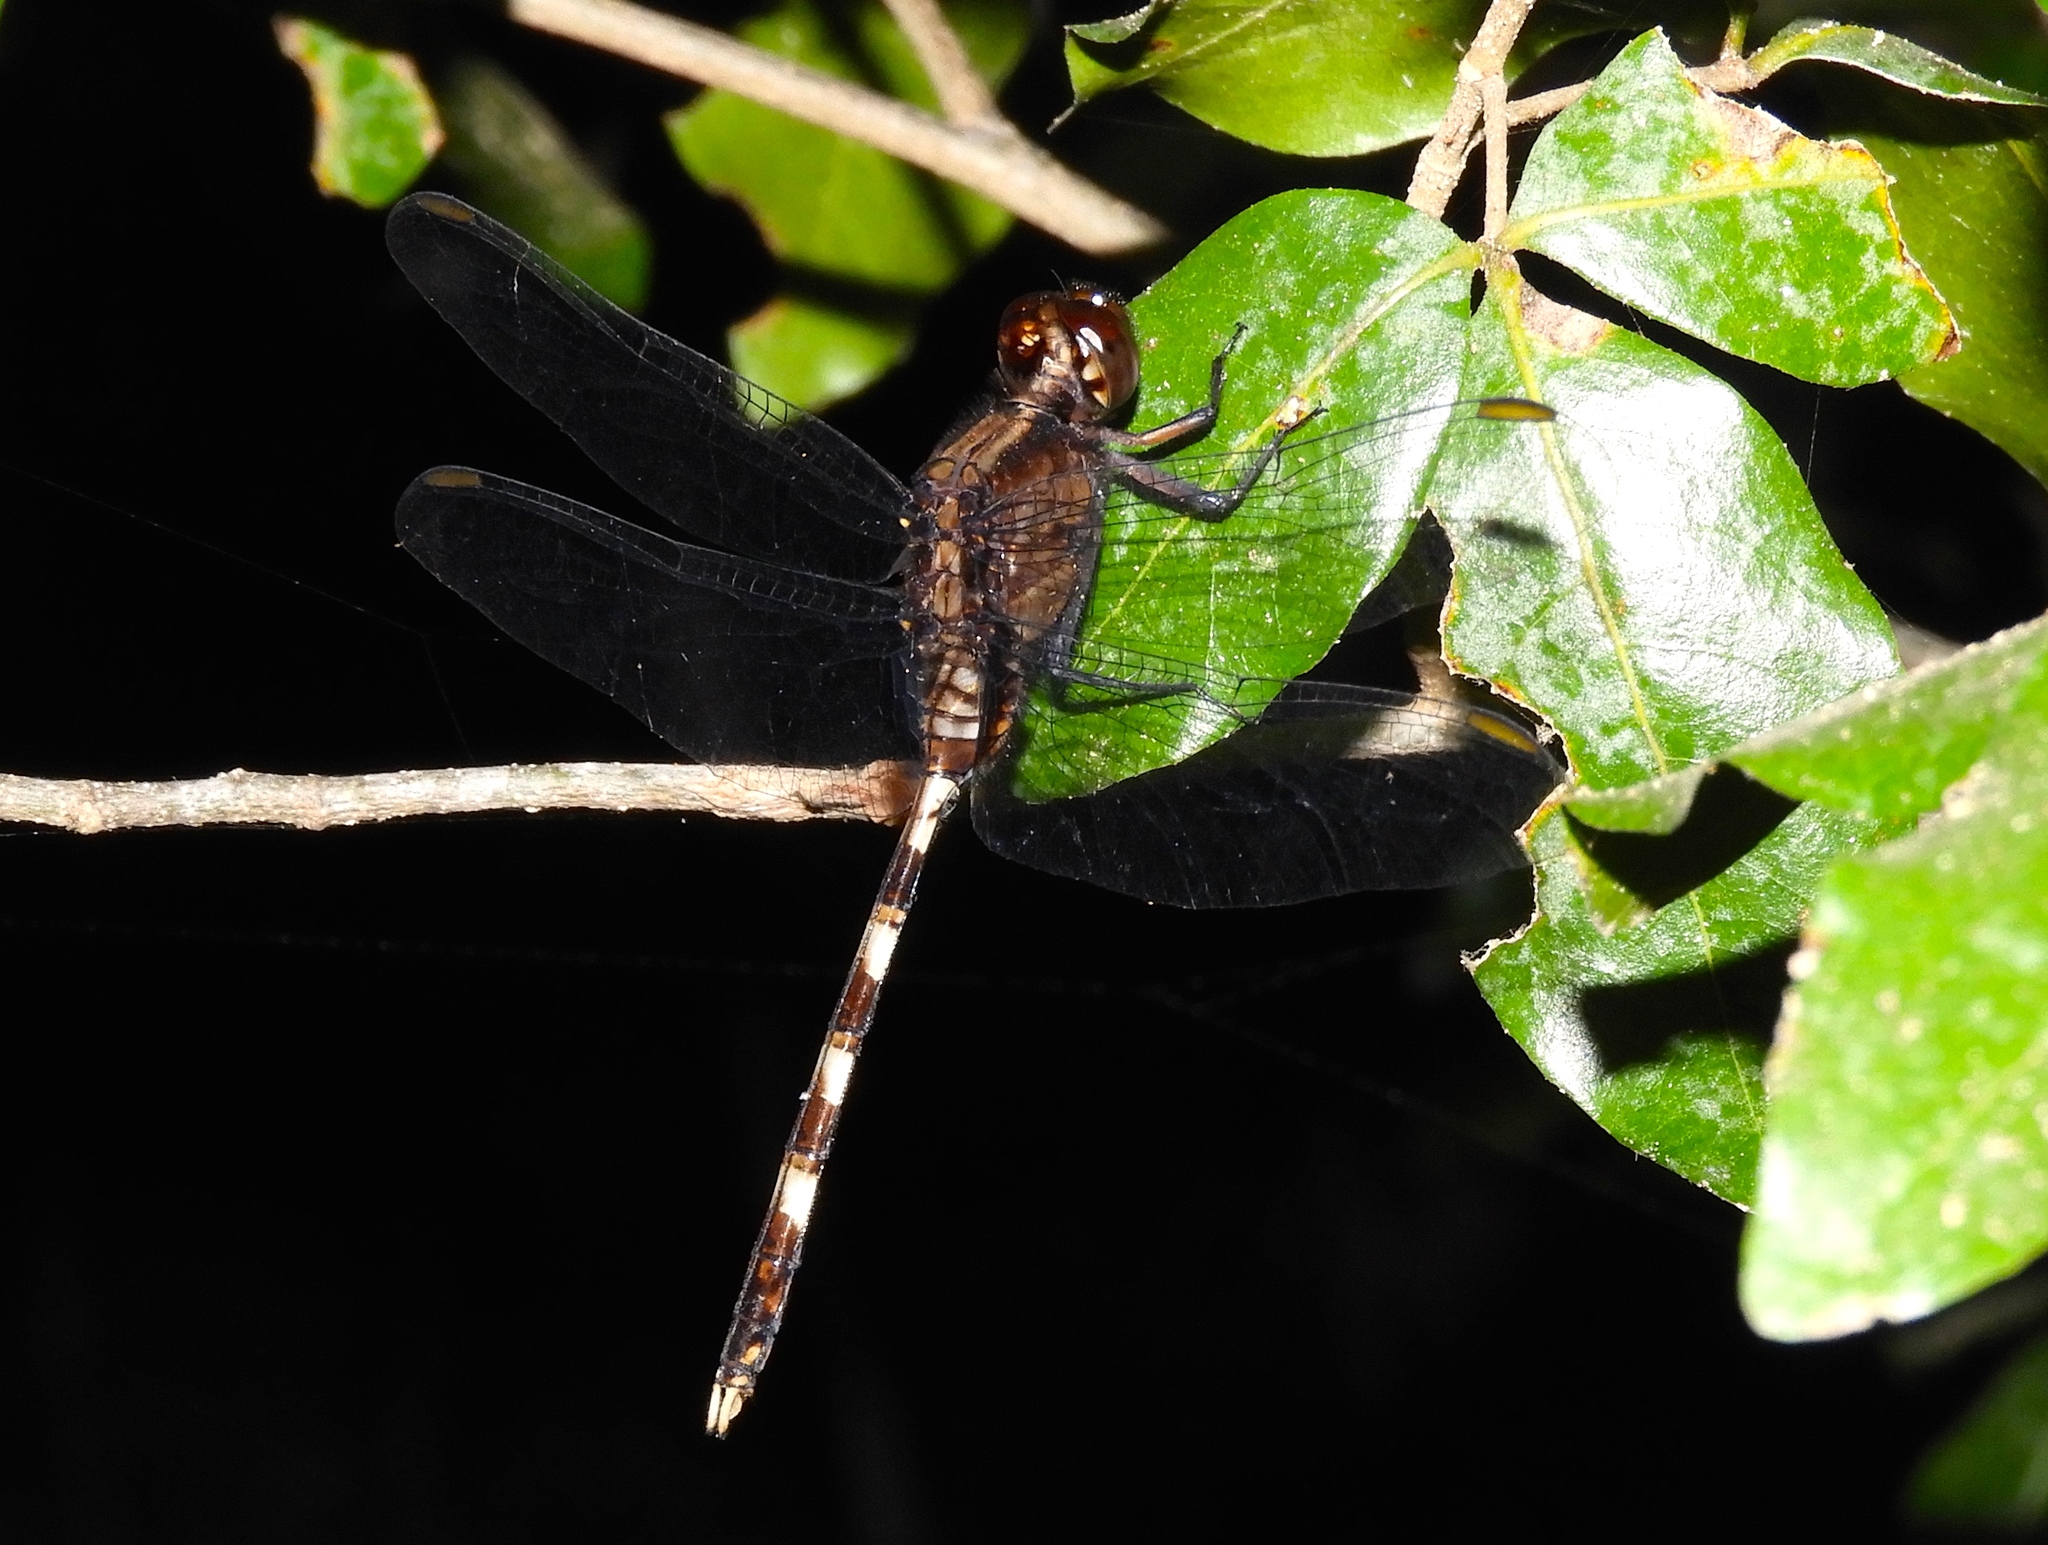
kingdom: Animalia
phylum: Arthropoda
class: Insecta
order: Odonata
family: Libellulidae
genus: Erythemis
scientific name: Erythemis plebeja
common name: Pin-tailed pondhawk
